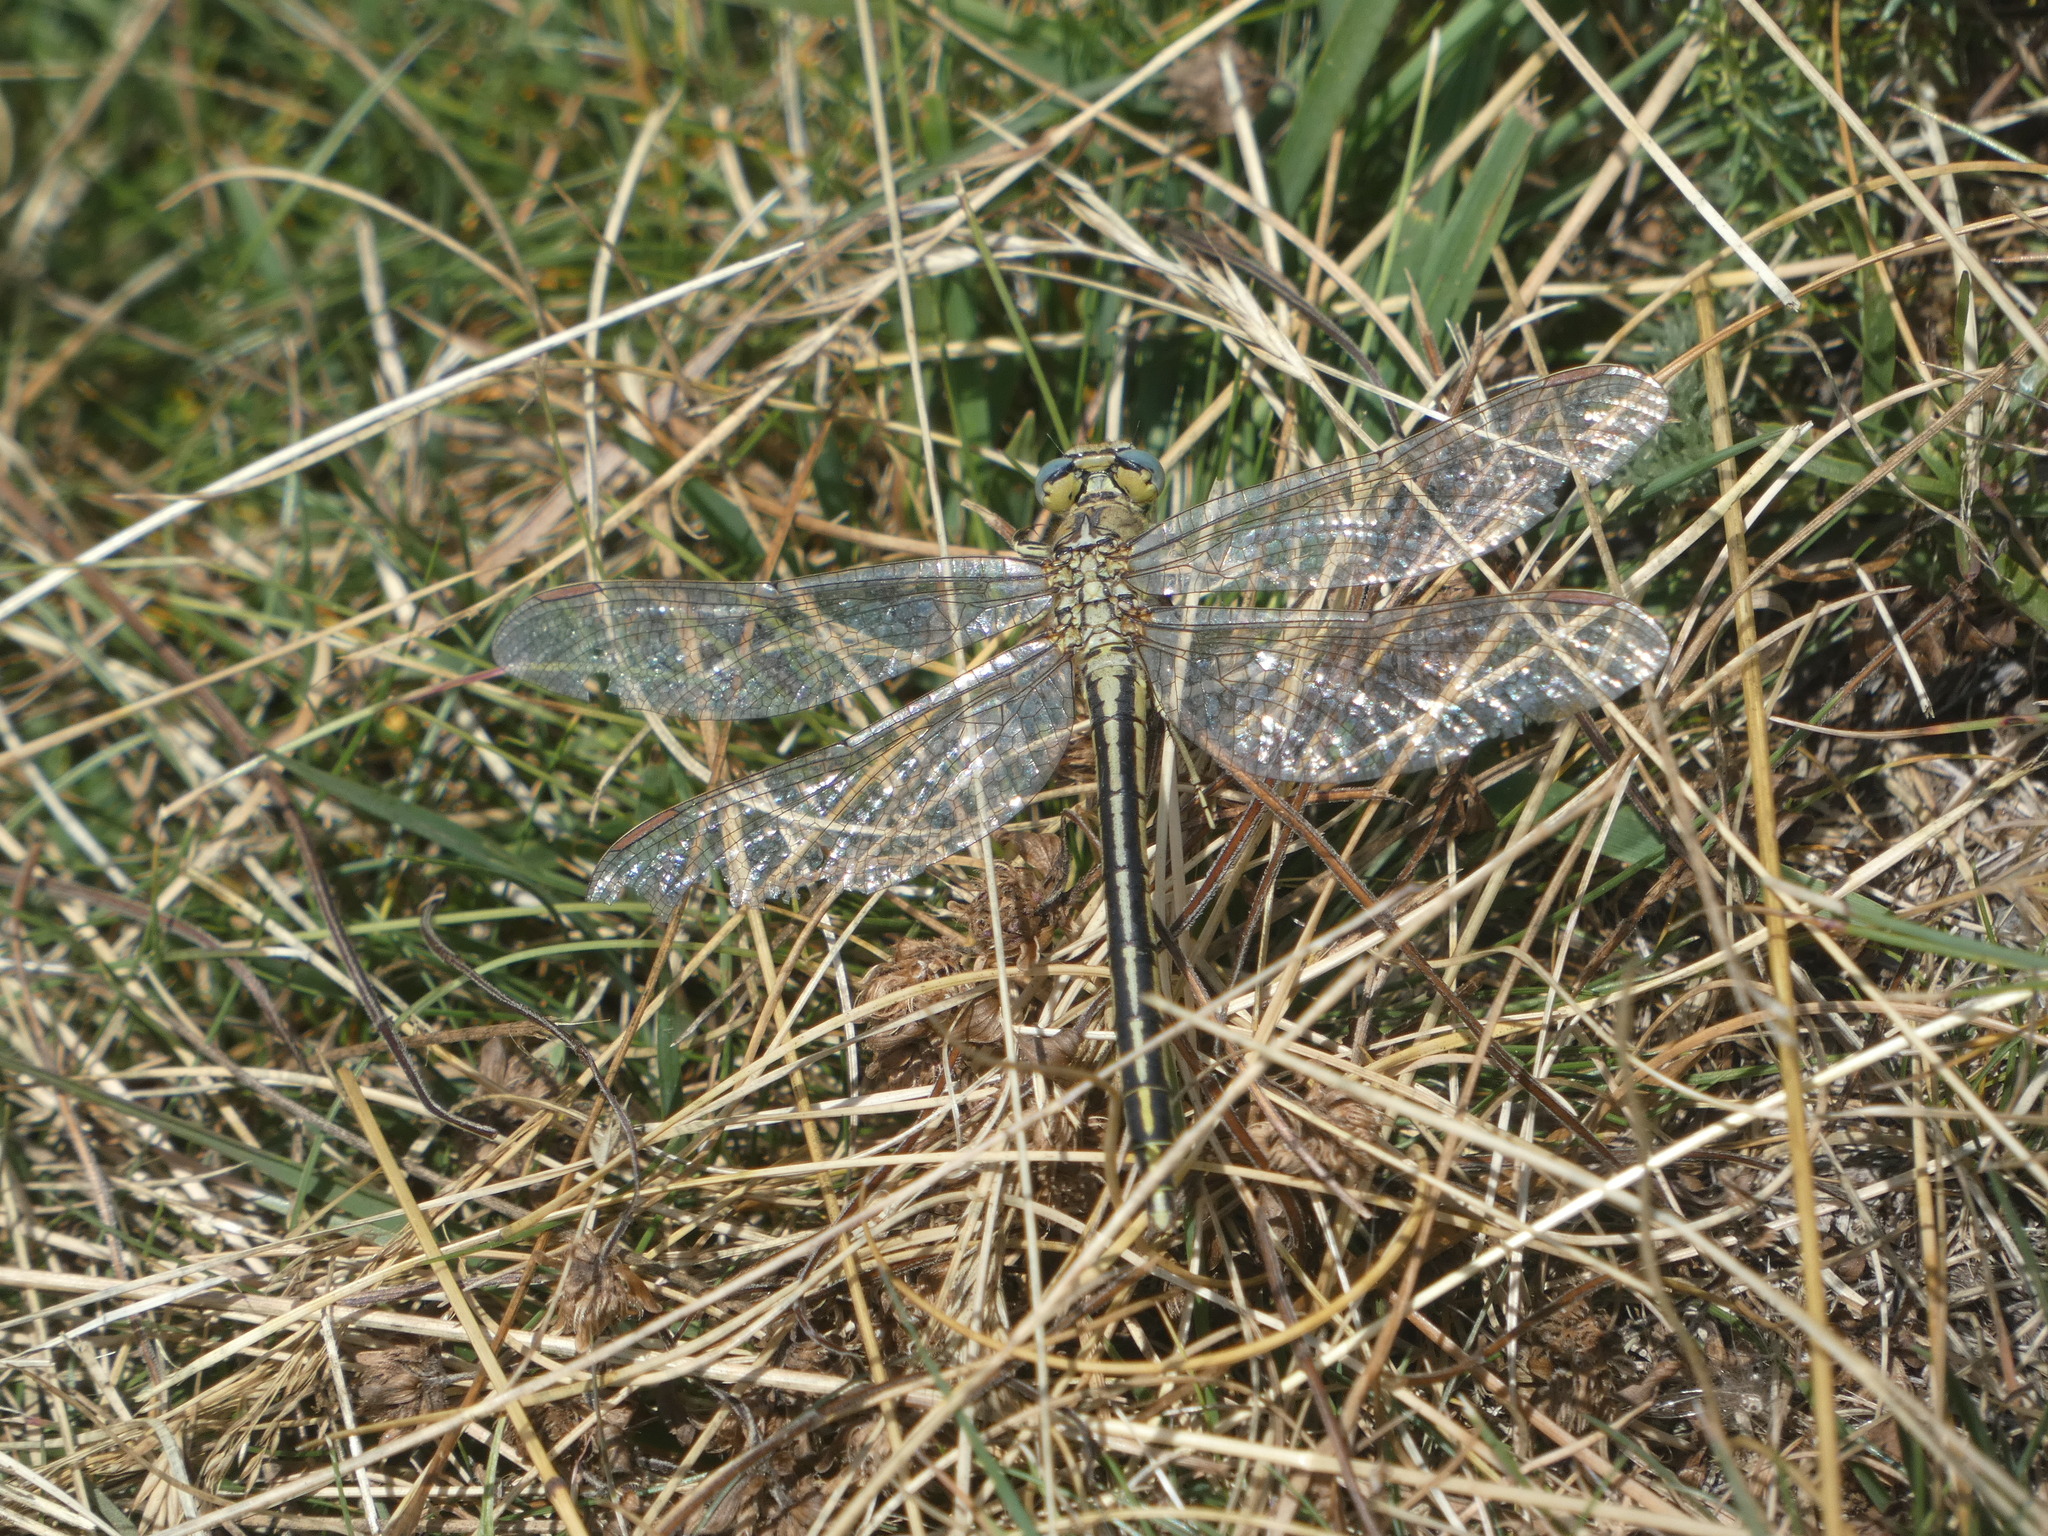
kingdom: Animalia
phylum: Arthropoda
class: Insecta
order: Odonata
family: Gomphidae
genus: Gomphus
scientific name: Gomphus pulchellus
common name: Western clubtail
